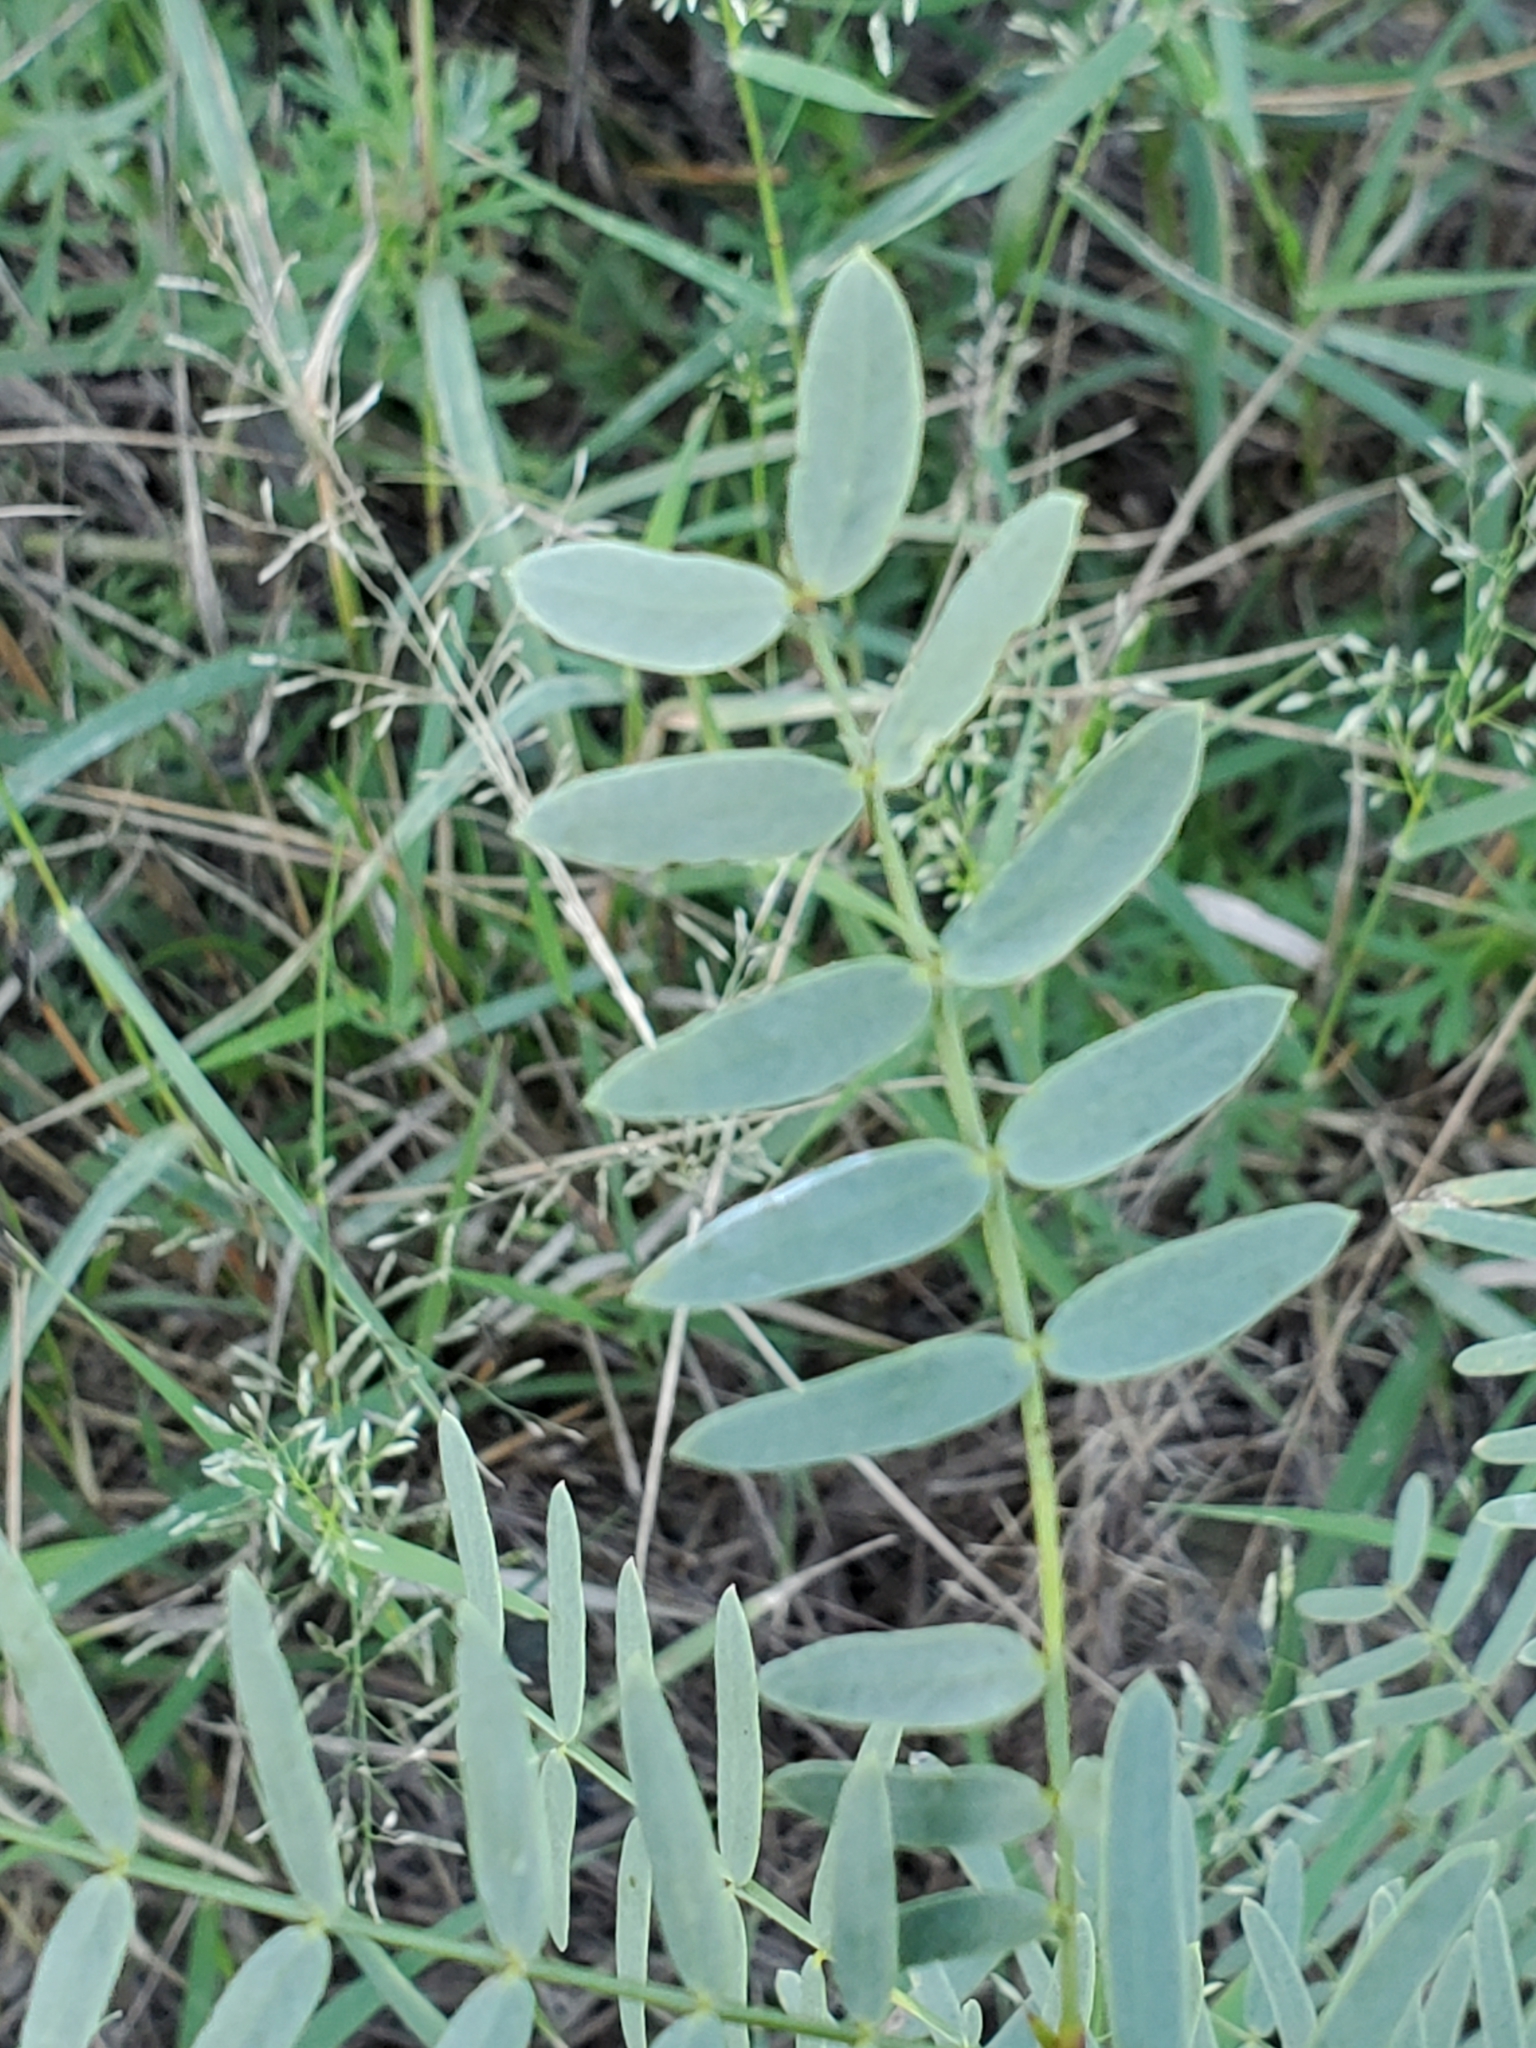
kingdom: Plantae
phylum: Tracheophyta
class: Magnoliopsida
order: Fabales
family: Fabaceae
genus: Prosopis
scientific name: Prosopis glandulosa
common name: Honey mesquite
